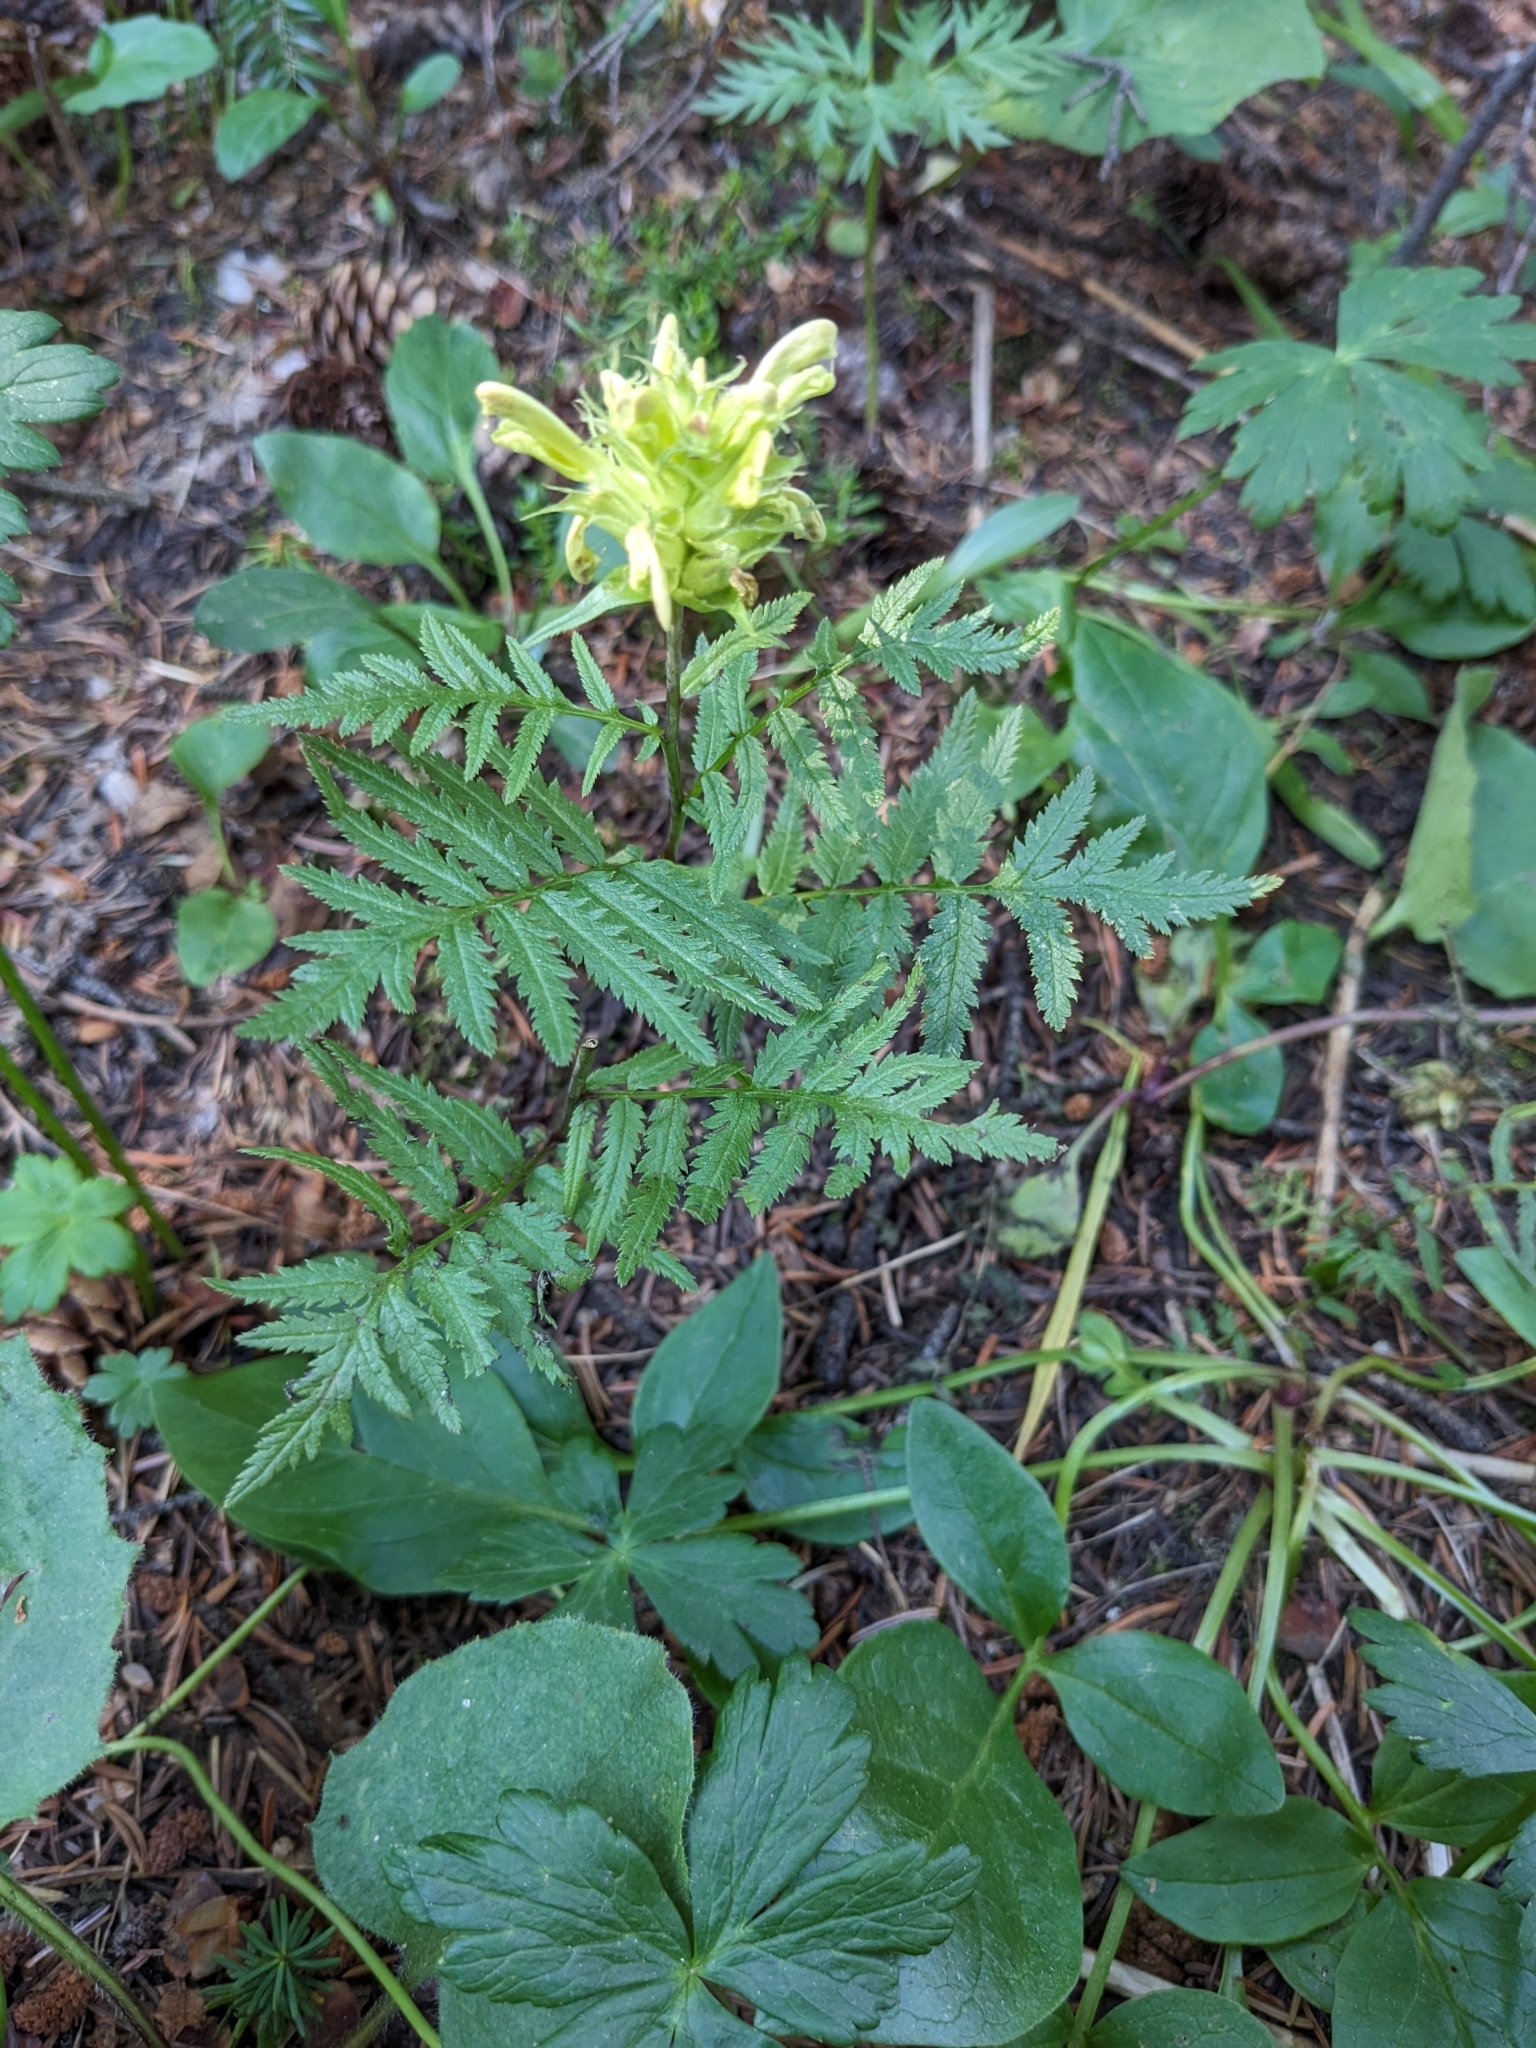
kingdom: Plantae
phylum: Tracheophyta
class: Magnoliopsida
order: Lamiales
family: Orobanchaceae
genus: Pedicularis
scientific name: Pedicularis bracteosa
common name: Bracted lousewort
